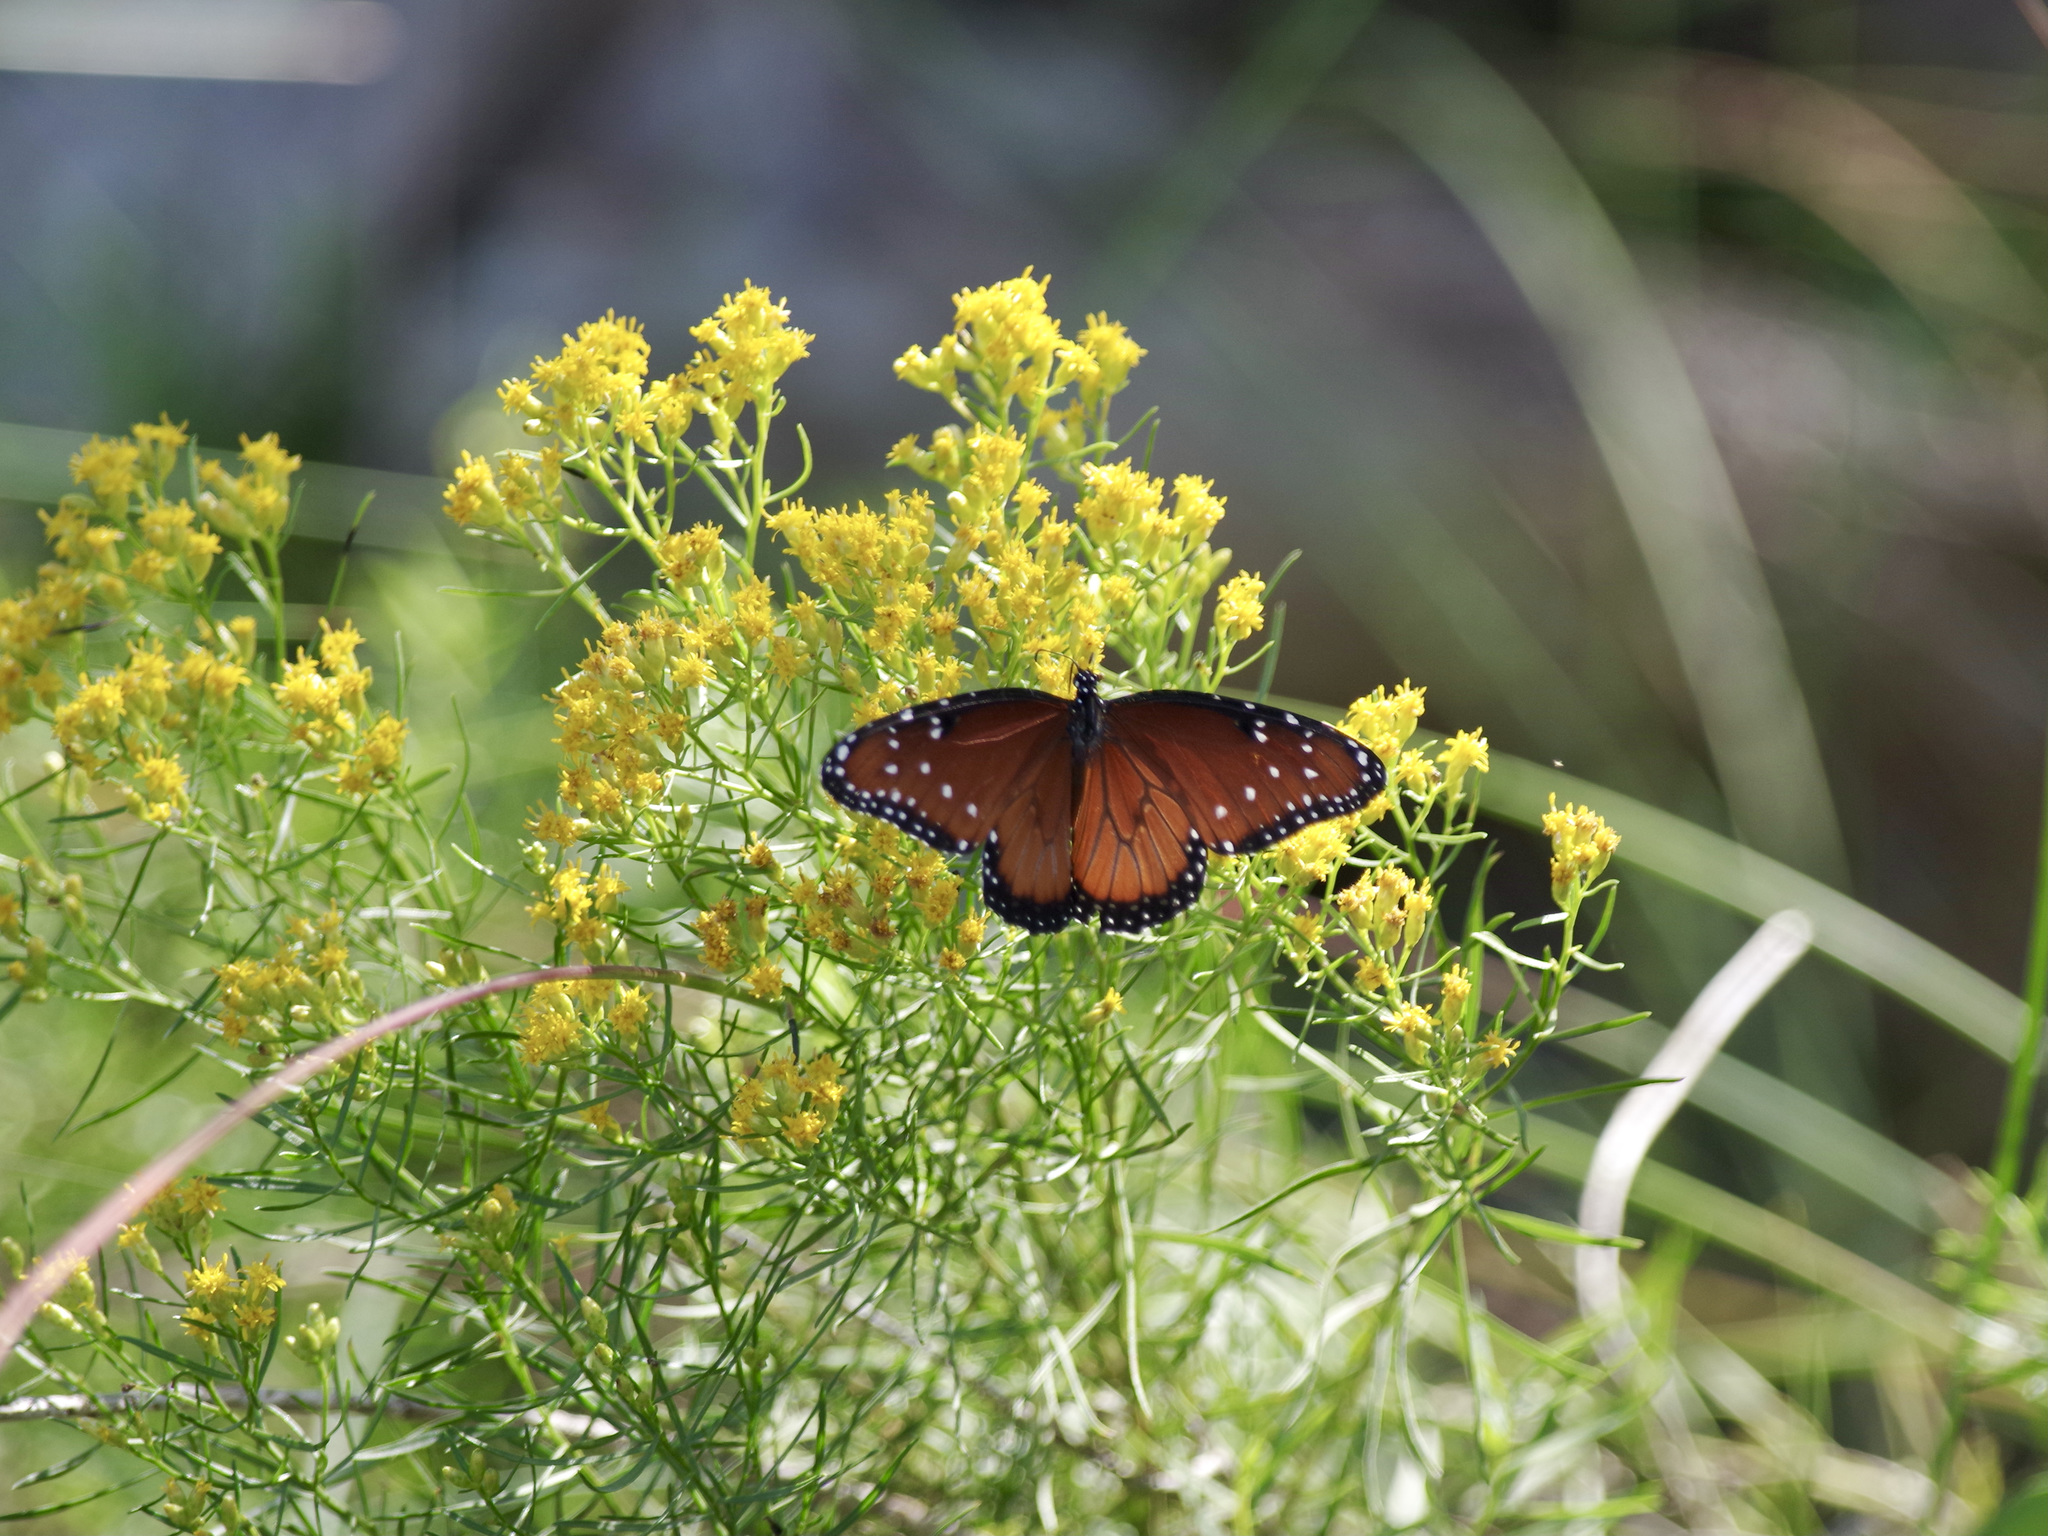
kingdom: Animalia
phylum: Arthropoda
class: Insecta
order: Lepidoptera
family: Nymphalidae
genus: Danaus
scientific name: Danaus gilippus
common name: Queen
